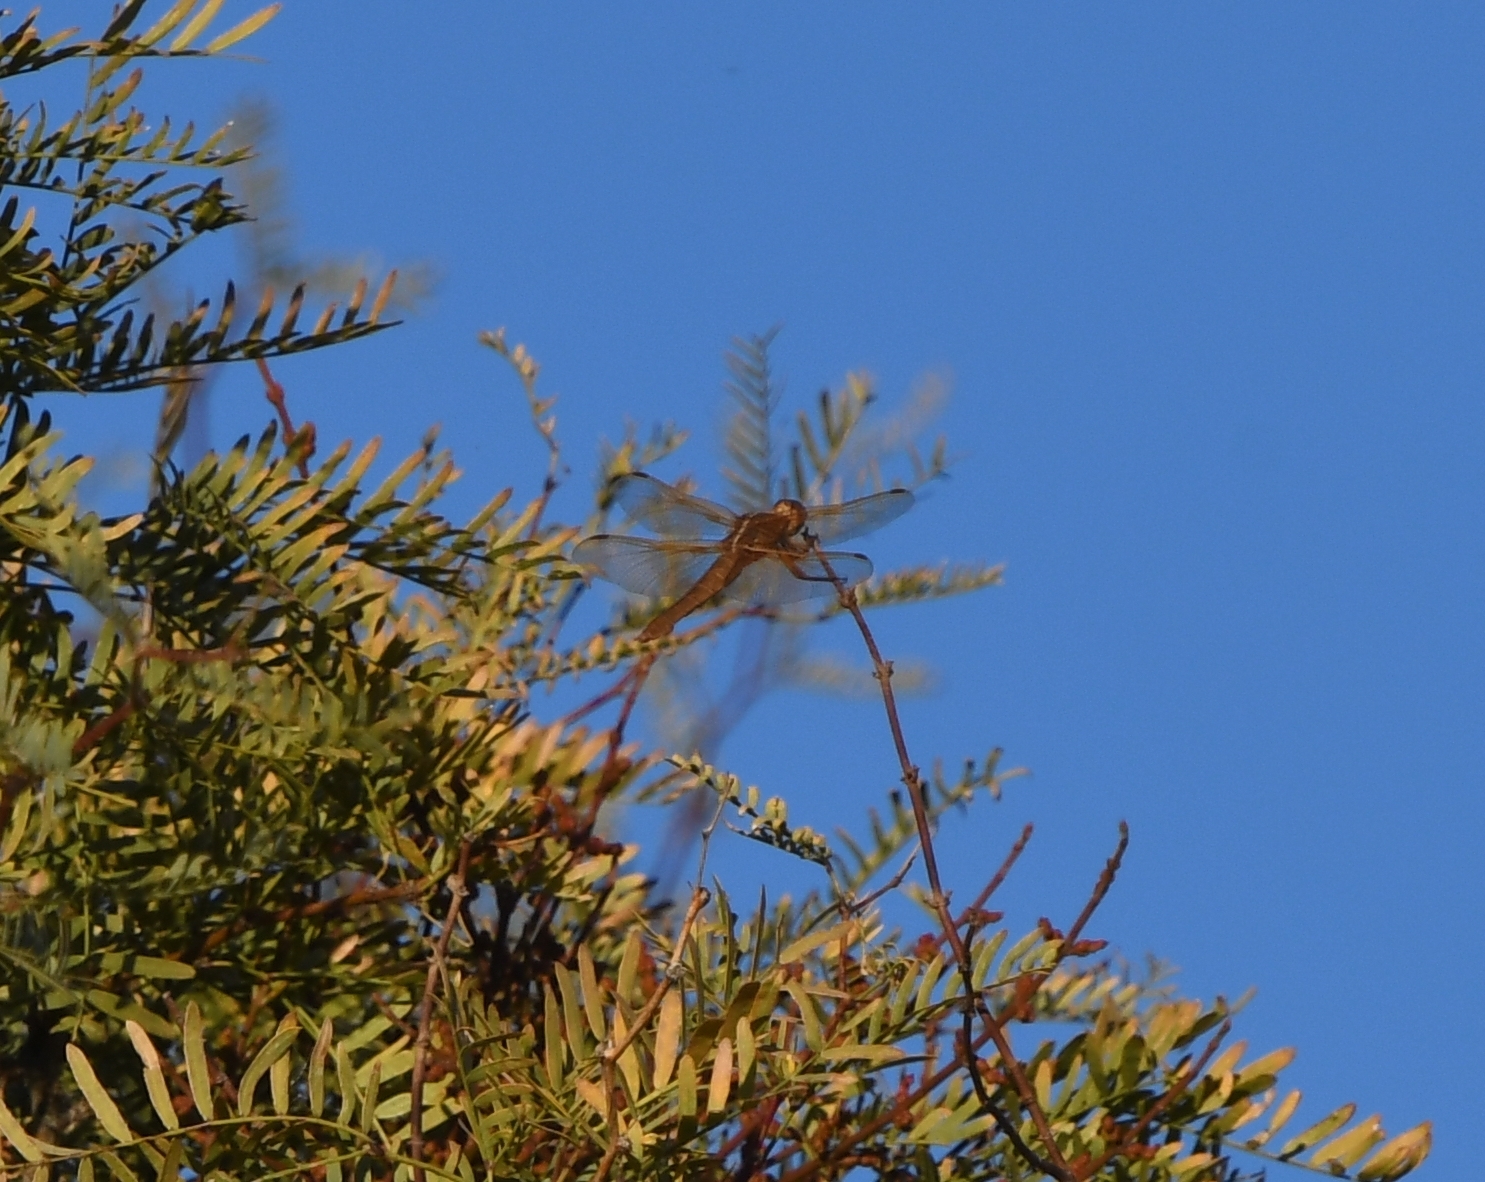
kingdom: Animalia
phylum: Arthropoda
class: Insecta
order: Odonata
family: Libellulidae
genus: Libellula
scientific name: Libellula saturata
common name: Flame skimmer
